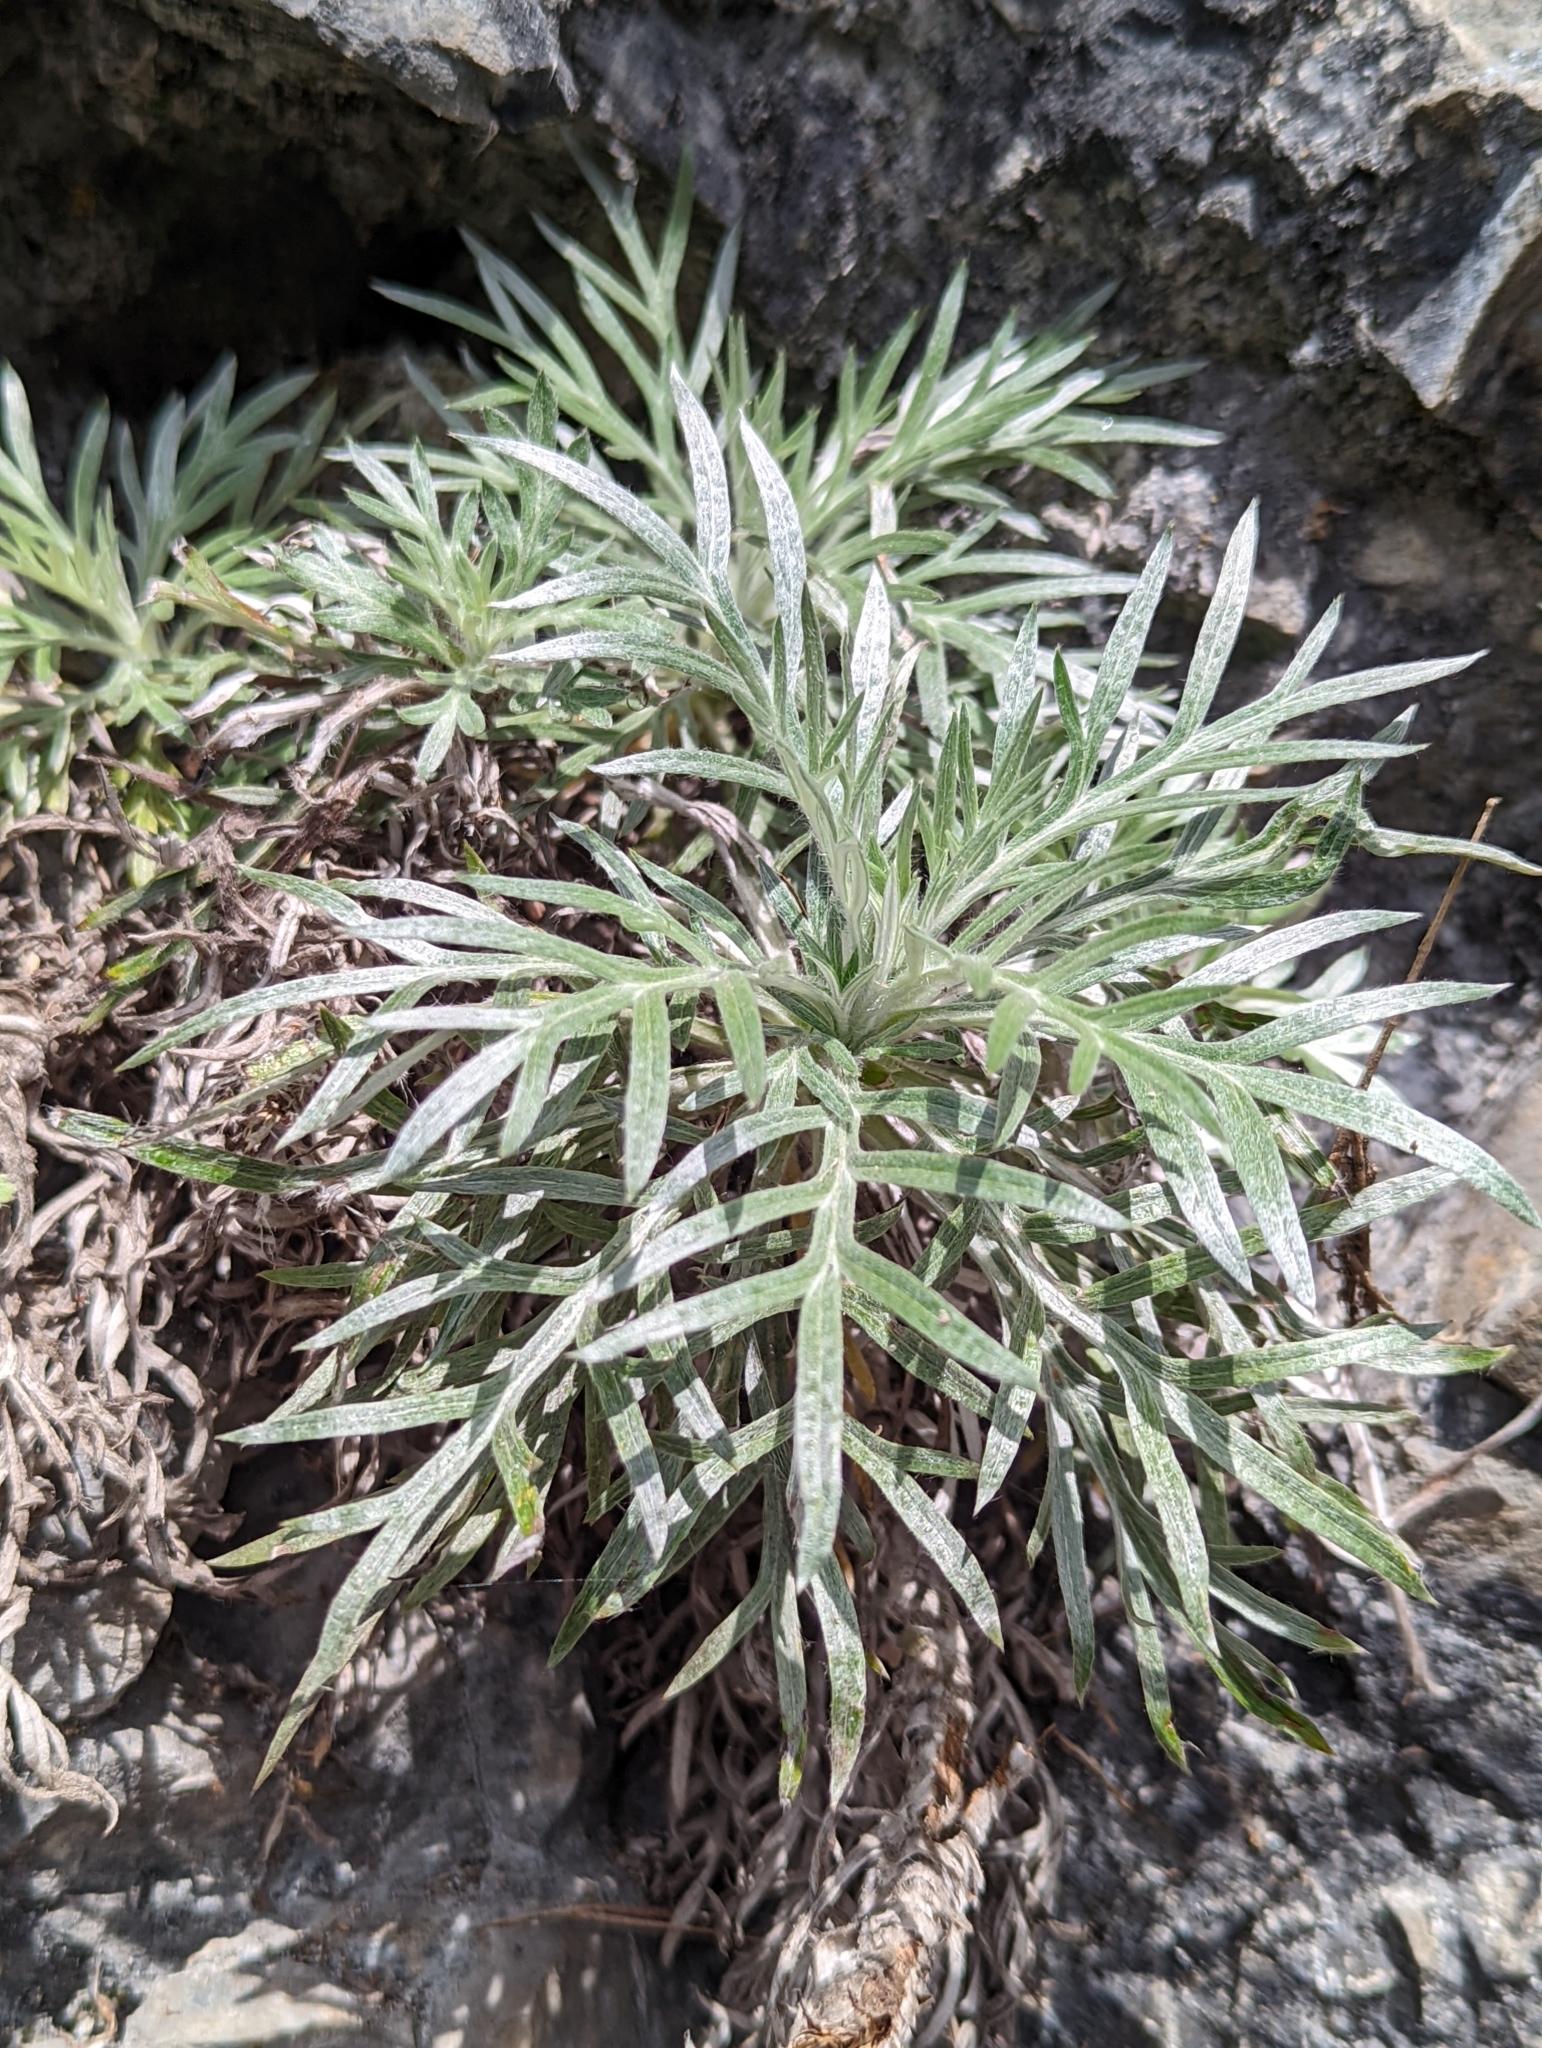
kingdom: Plantae
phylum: Tracheophyta
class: Magnoliopsida
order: Asterales
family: Asteraceae
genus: Artemisia
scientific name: Artemisia somae
